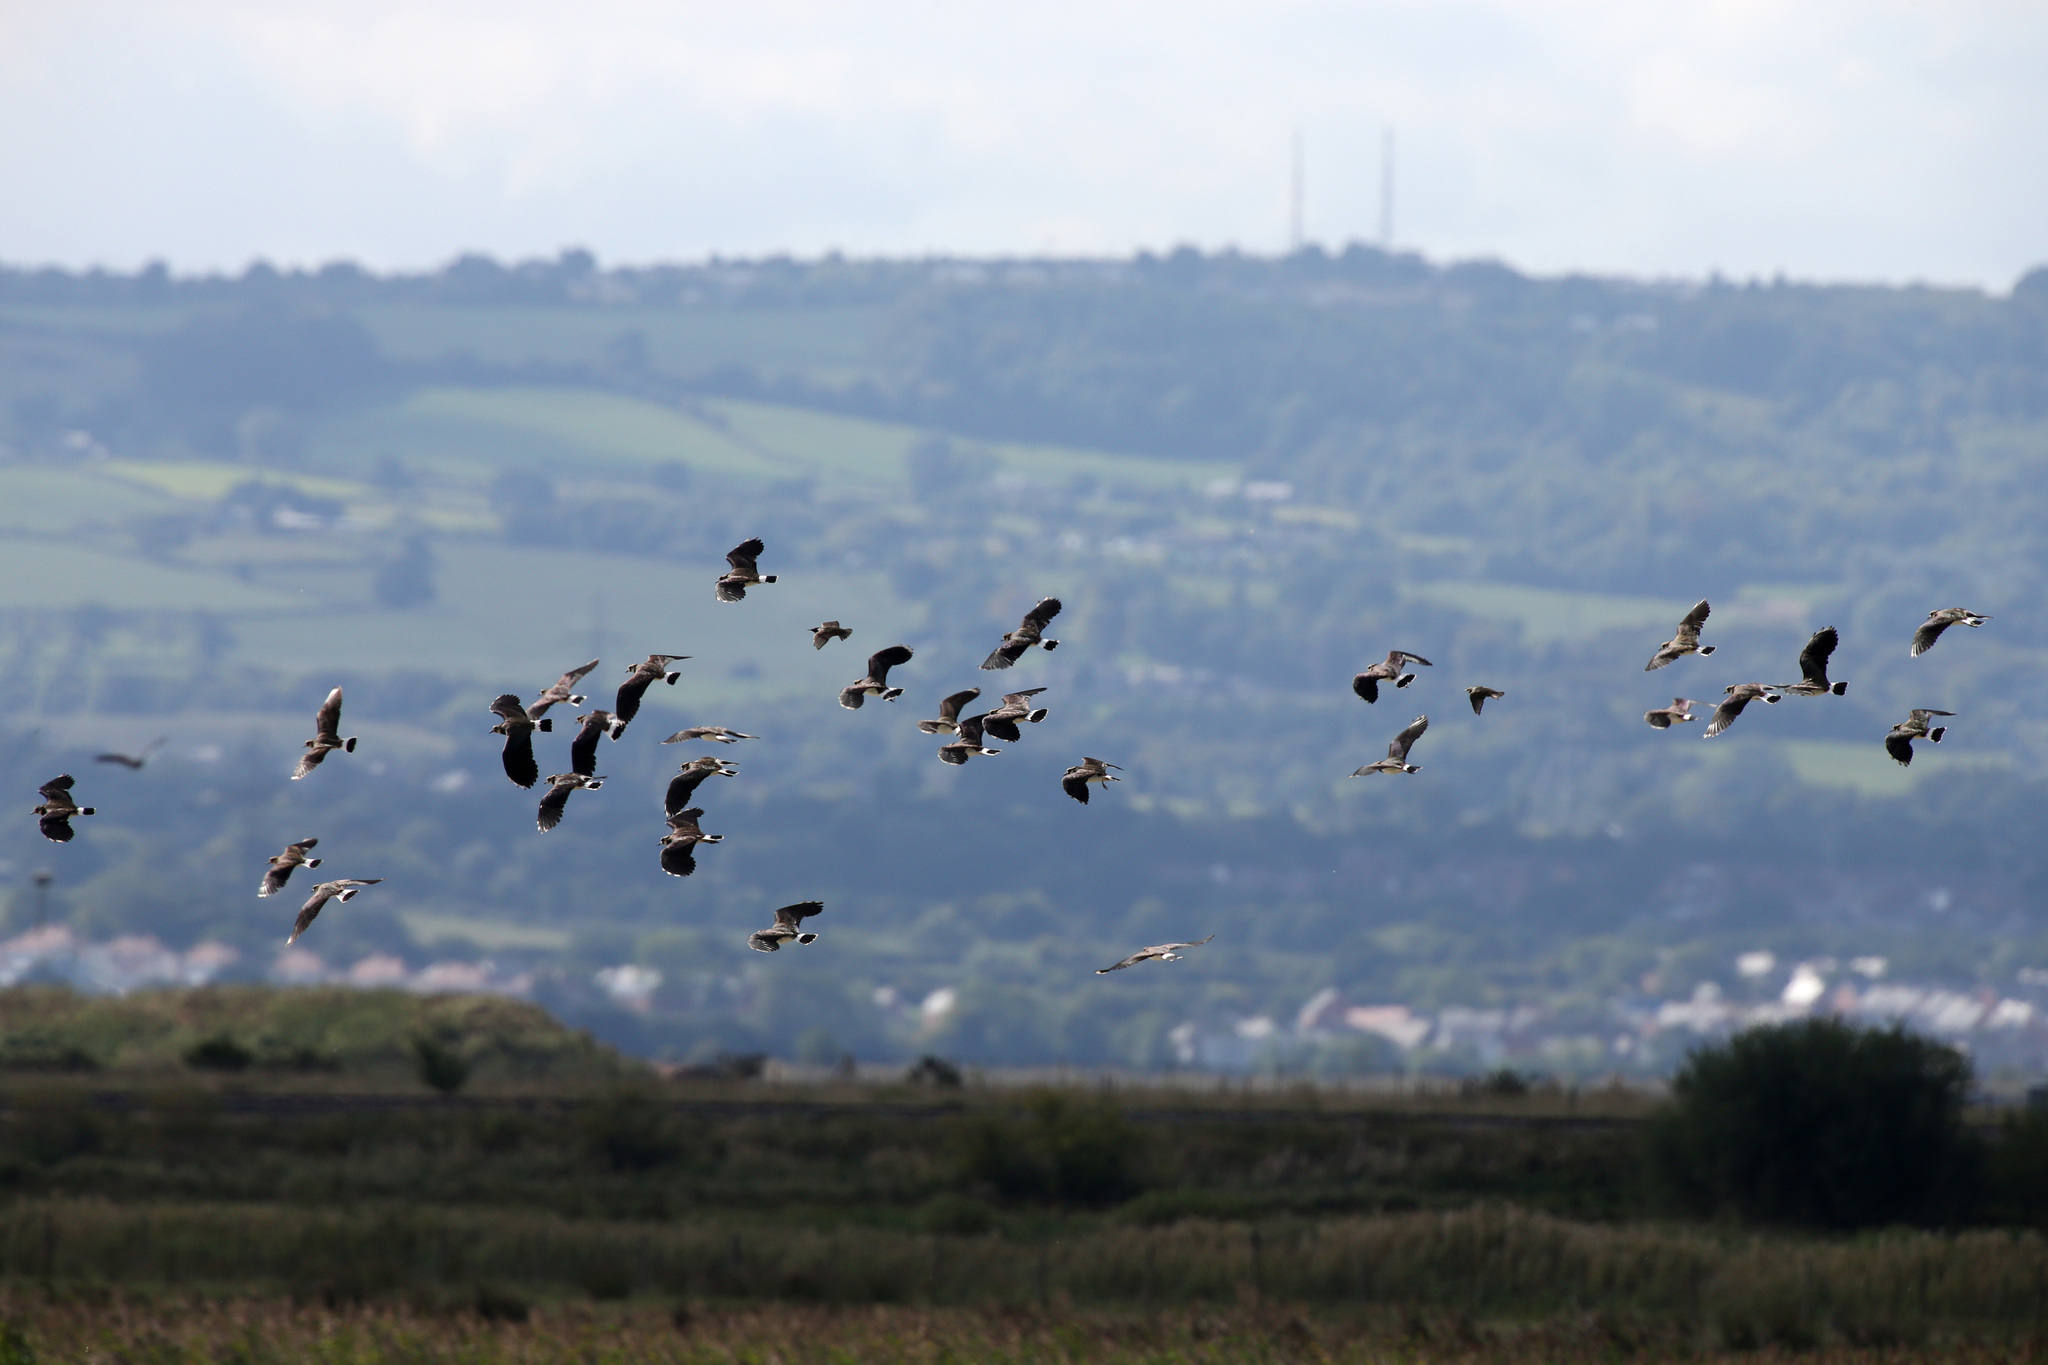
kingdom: Animalia
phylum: Chordata
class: Aves
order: Charadriiformes
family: Charadriidae
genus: Vanellus
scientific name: Vanellus vanellus
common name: Northern lapwing
